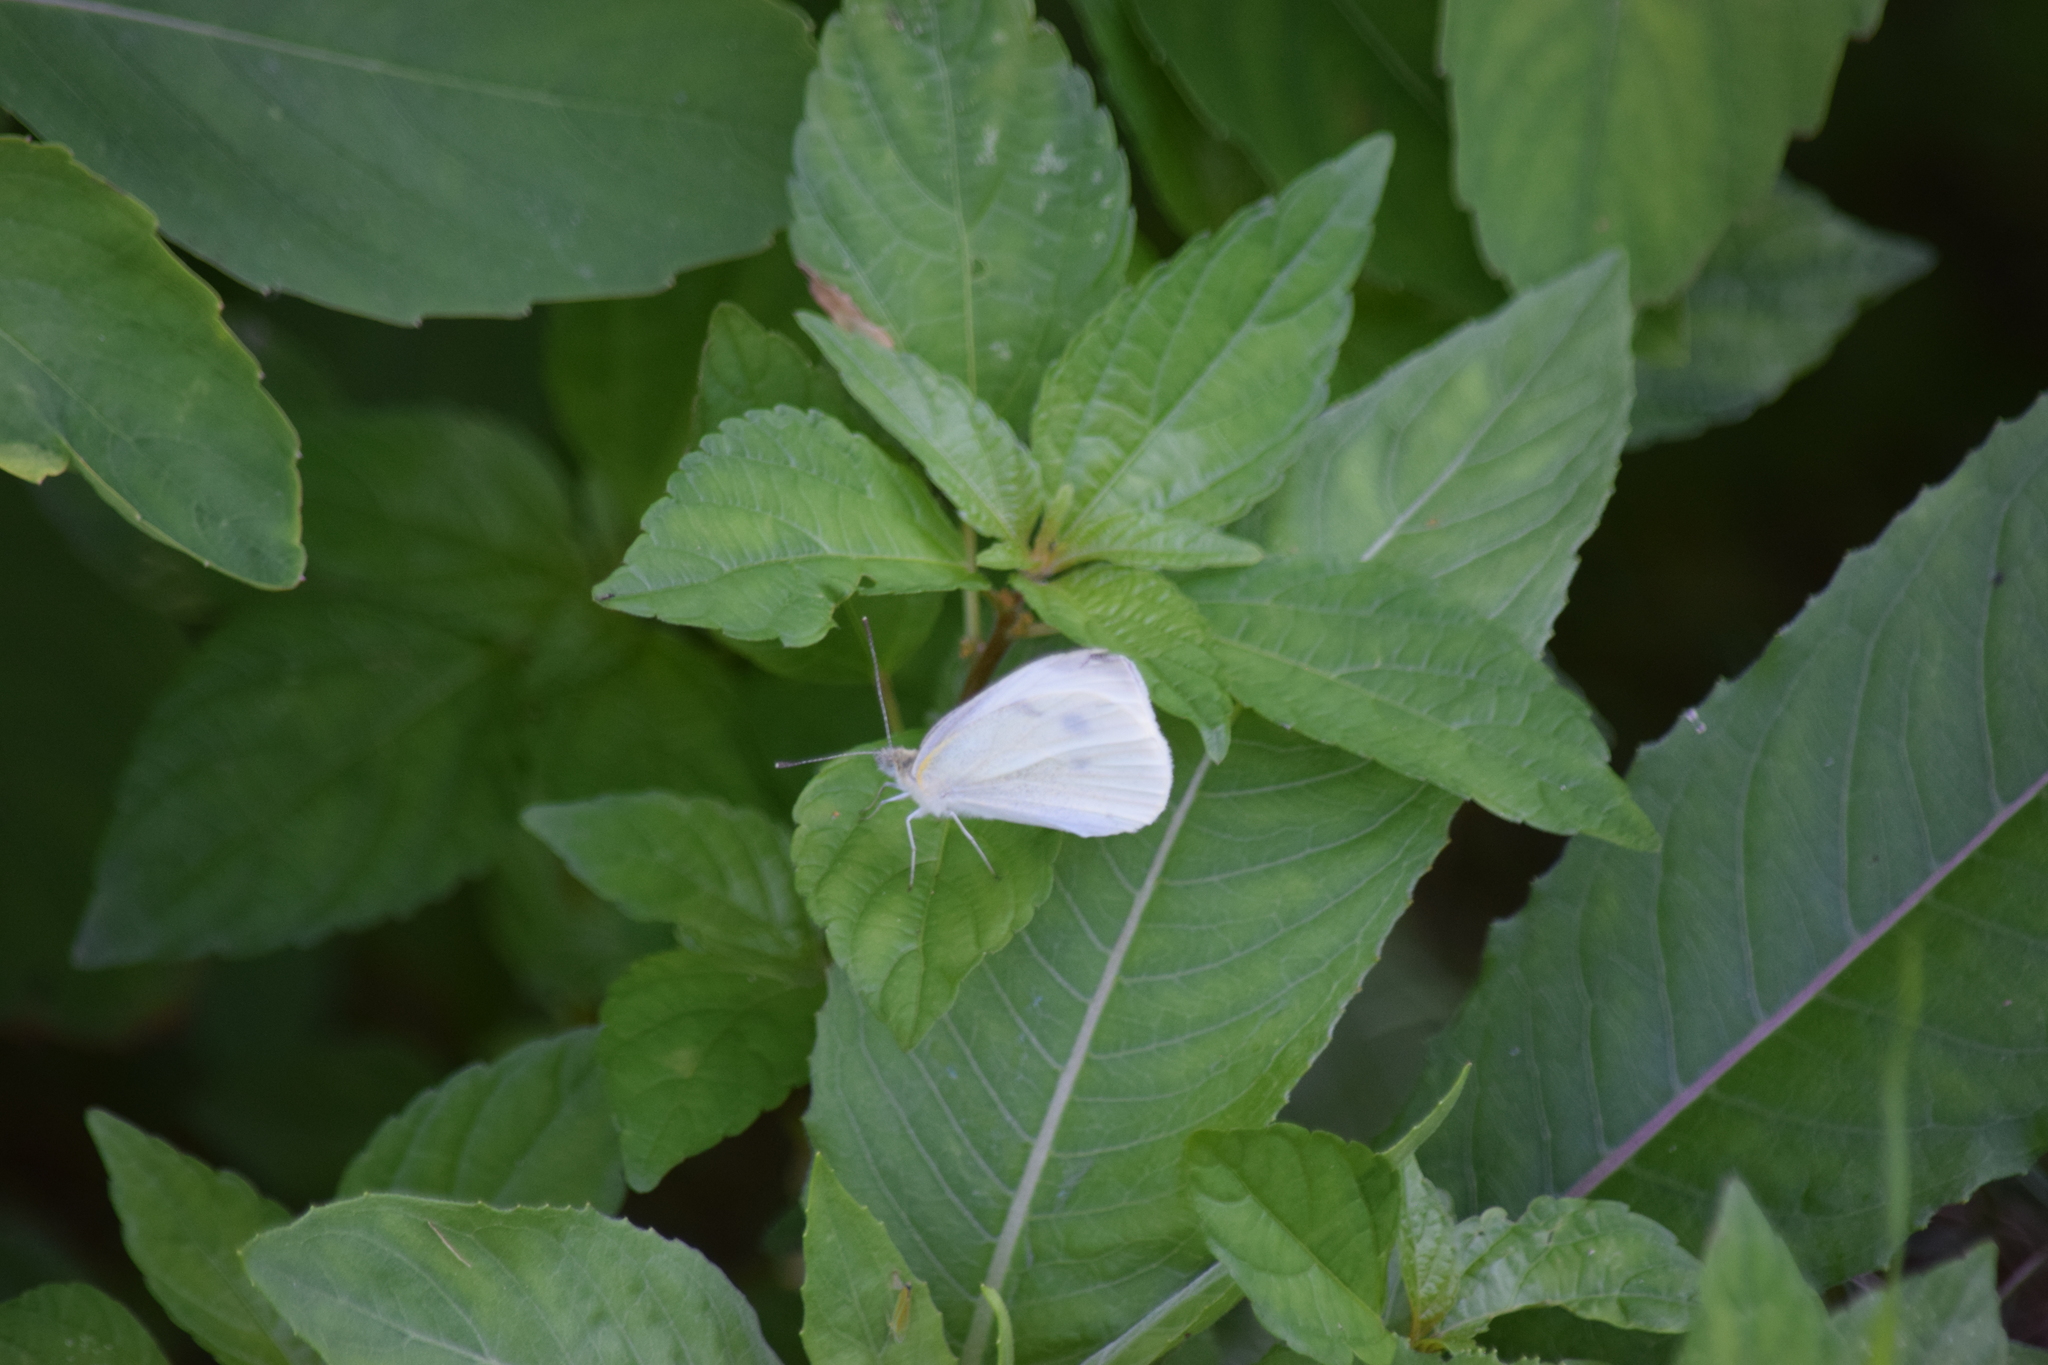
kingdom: Animalia
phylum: Arthropoda
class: Insecta
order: Lepidoptera
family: Pieridae
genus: Pieris
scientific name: Pieris rapae
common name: Small white
